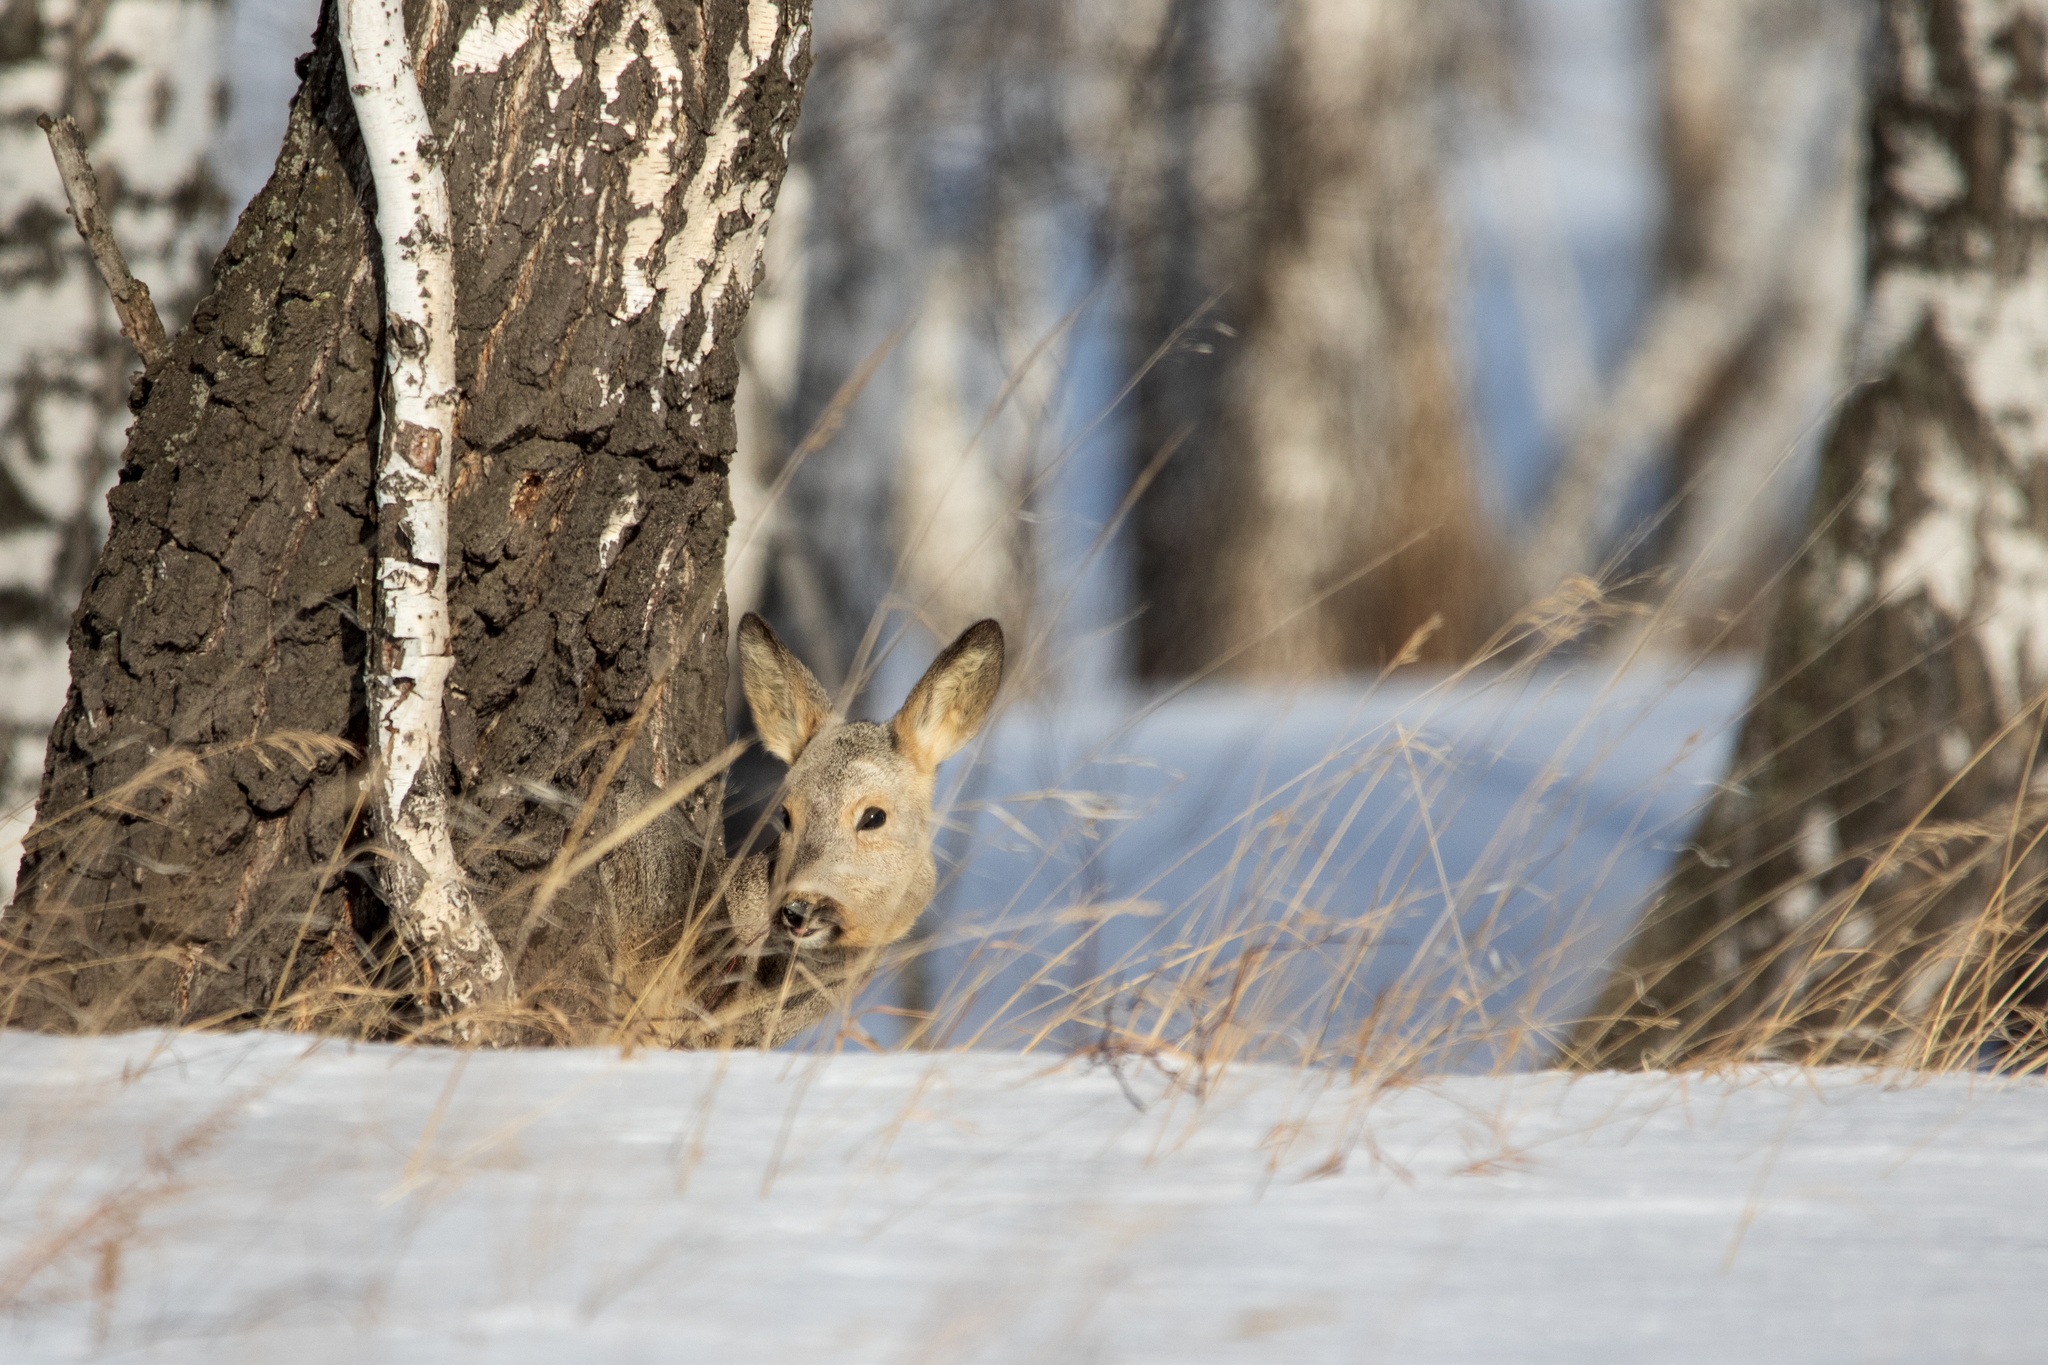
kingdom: Animalia
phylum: Chordata
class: Mammalia
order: Artiodactyla
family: Cervidae
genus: Capreolus
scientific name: Capreolus pygargus
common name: Siberian roe
